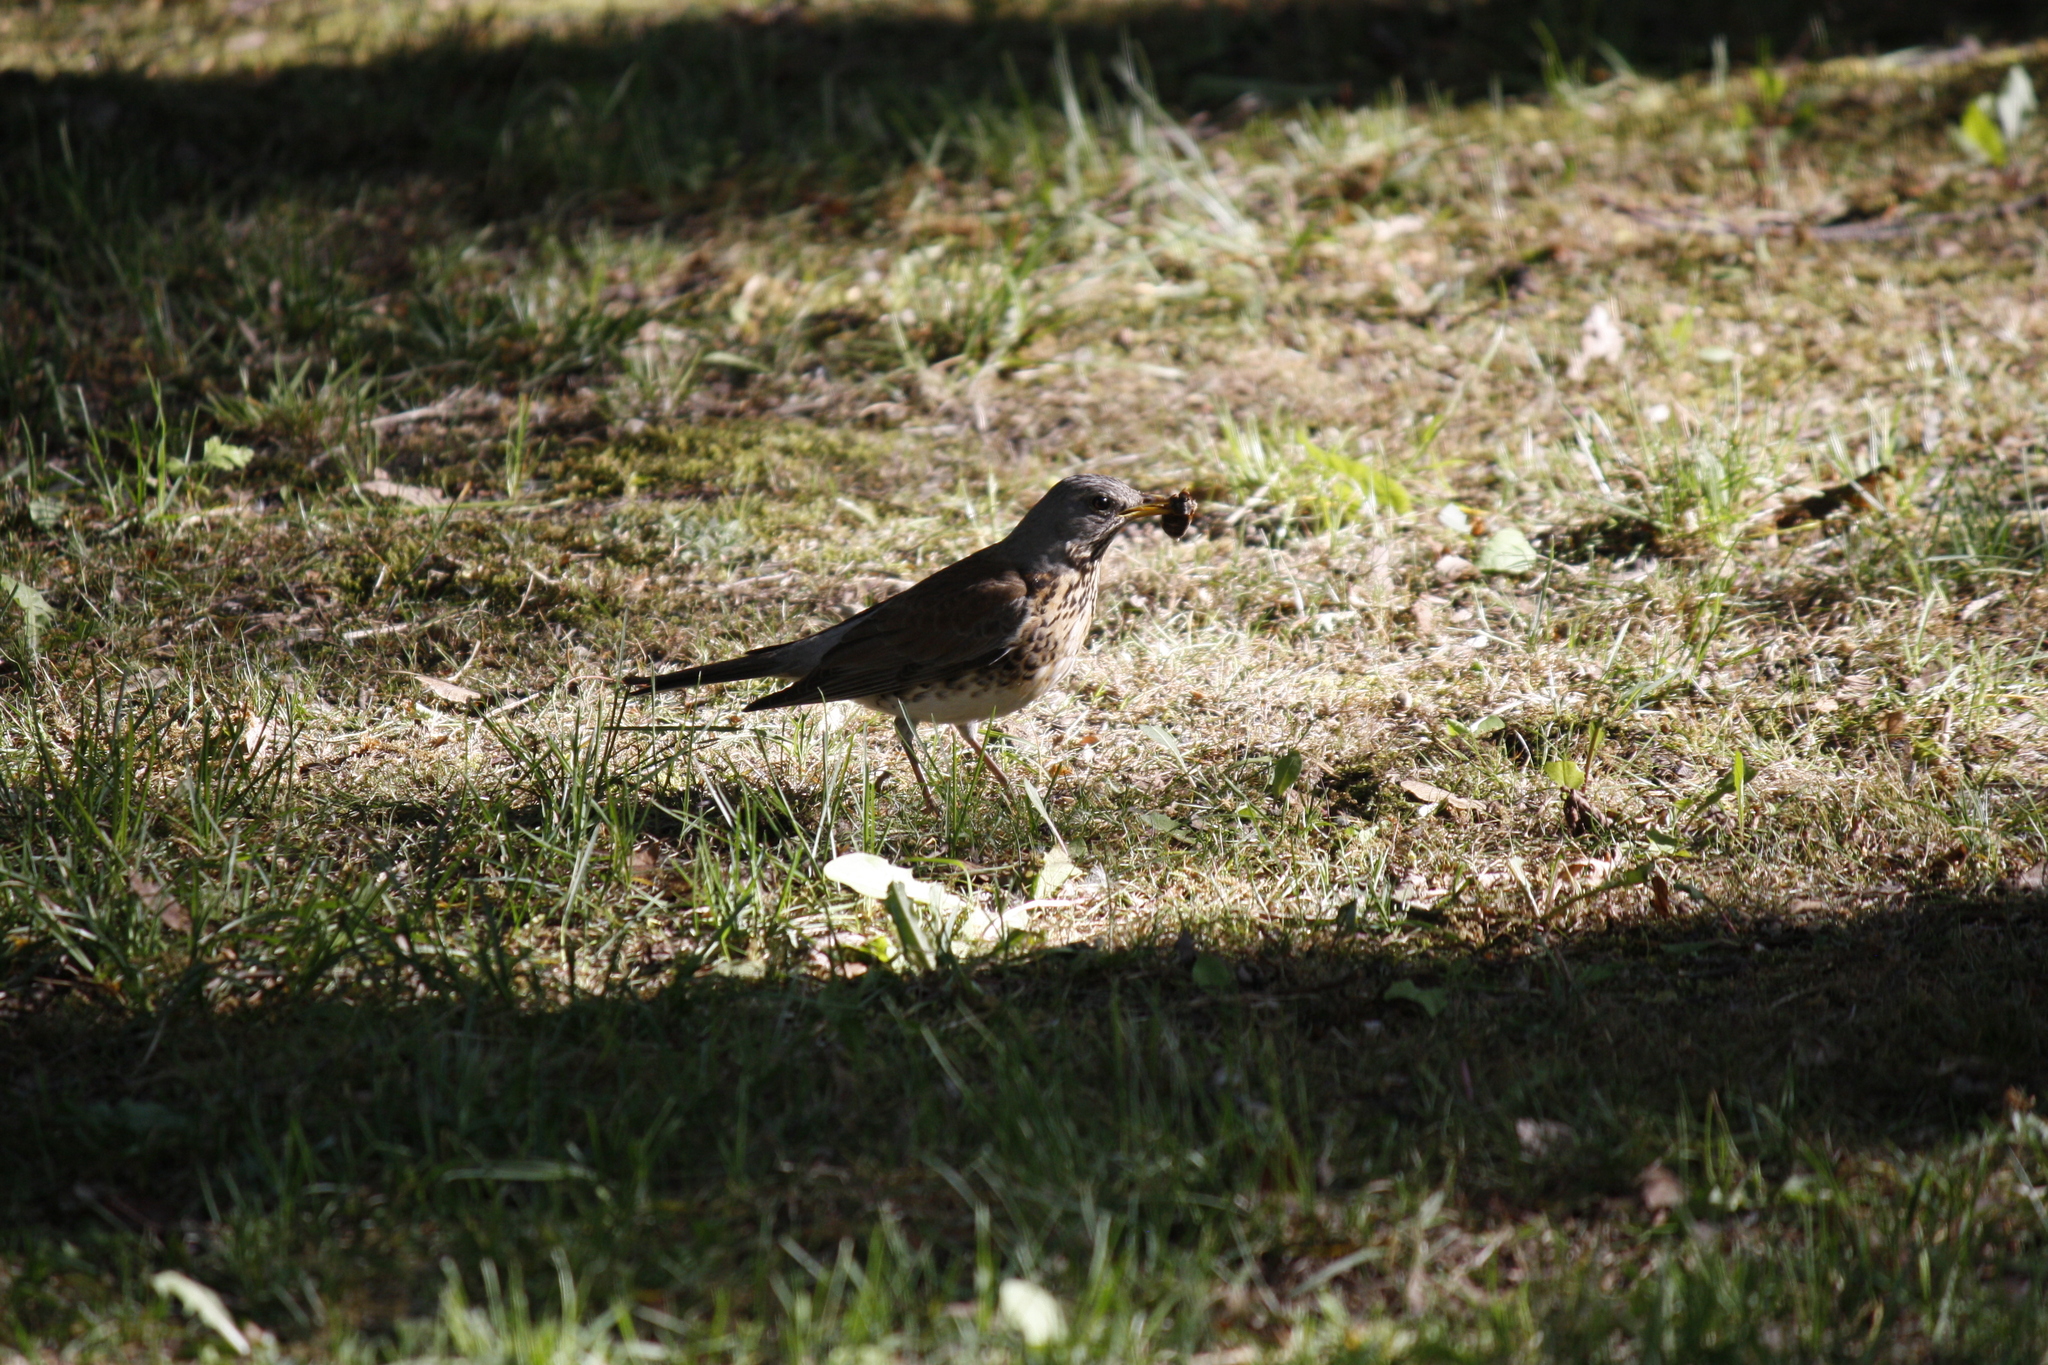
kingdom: Animalia
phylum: Chordata
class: Aves
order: Passeriformes
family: Turdidae
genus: Turdus
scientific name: Turdus pilaris
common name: Fieldfare
